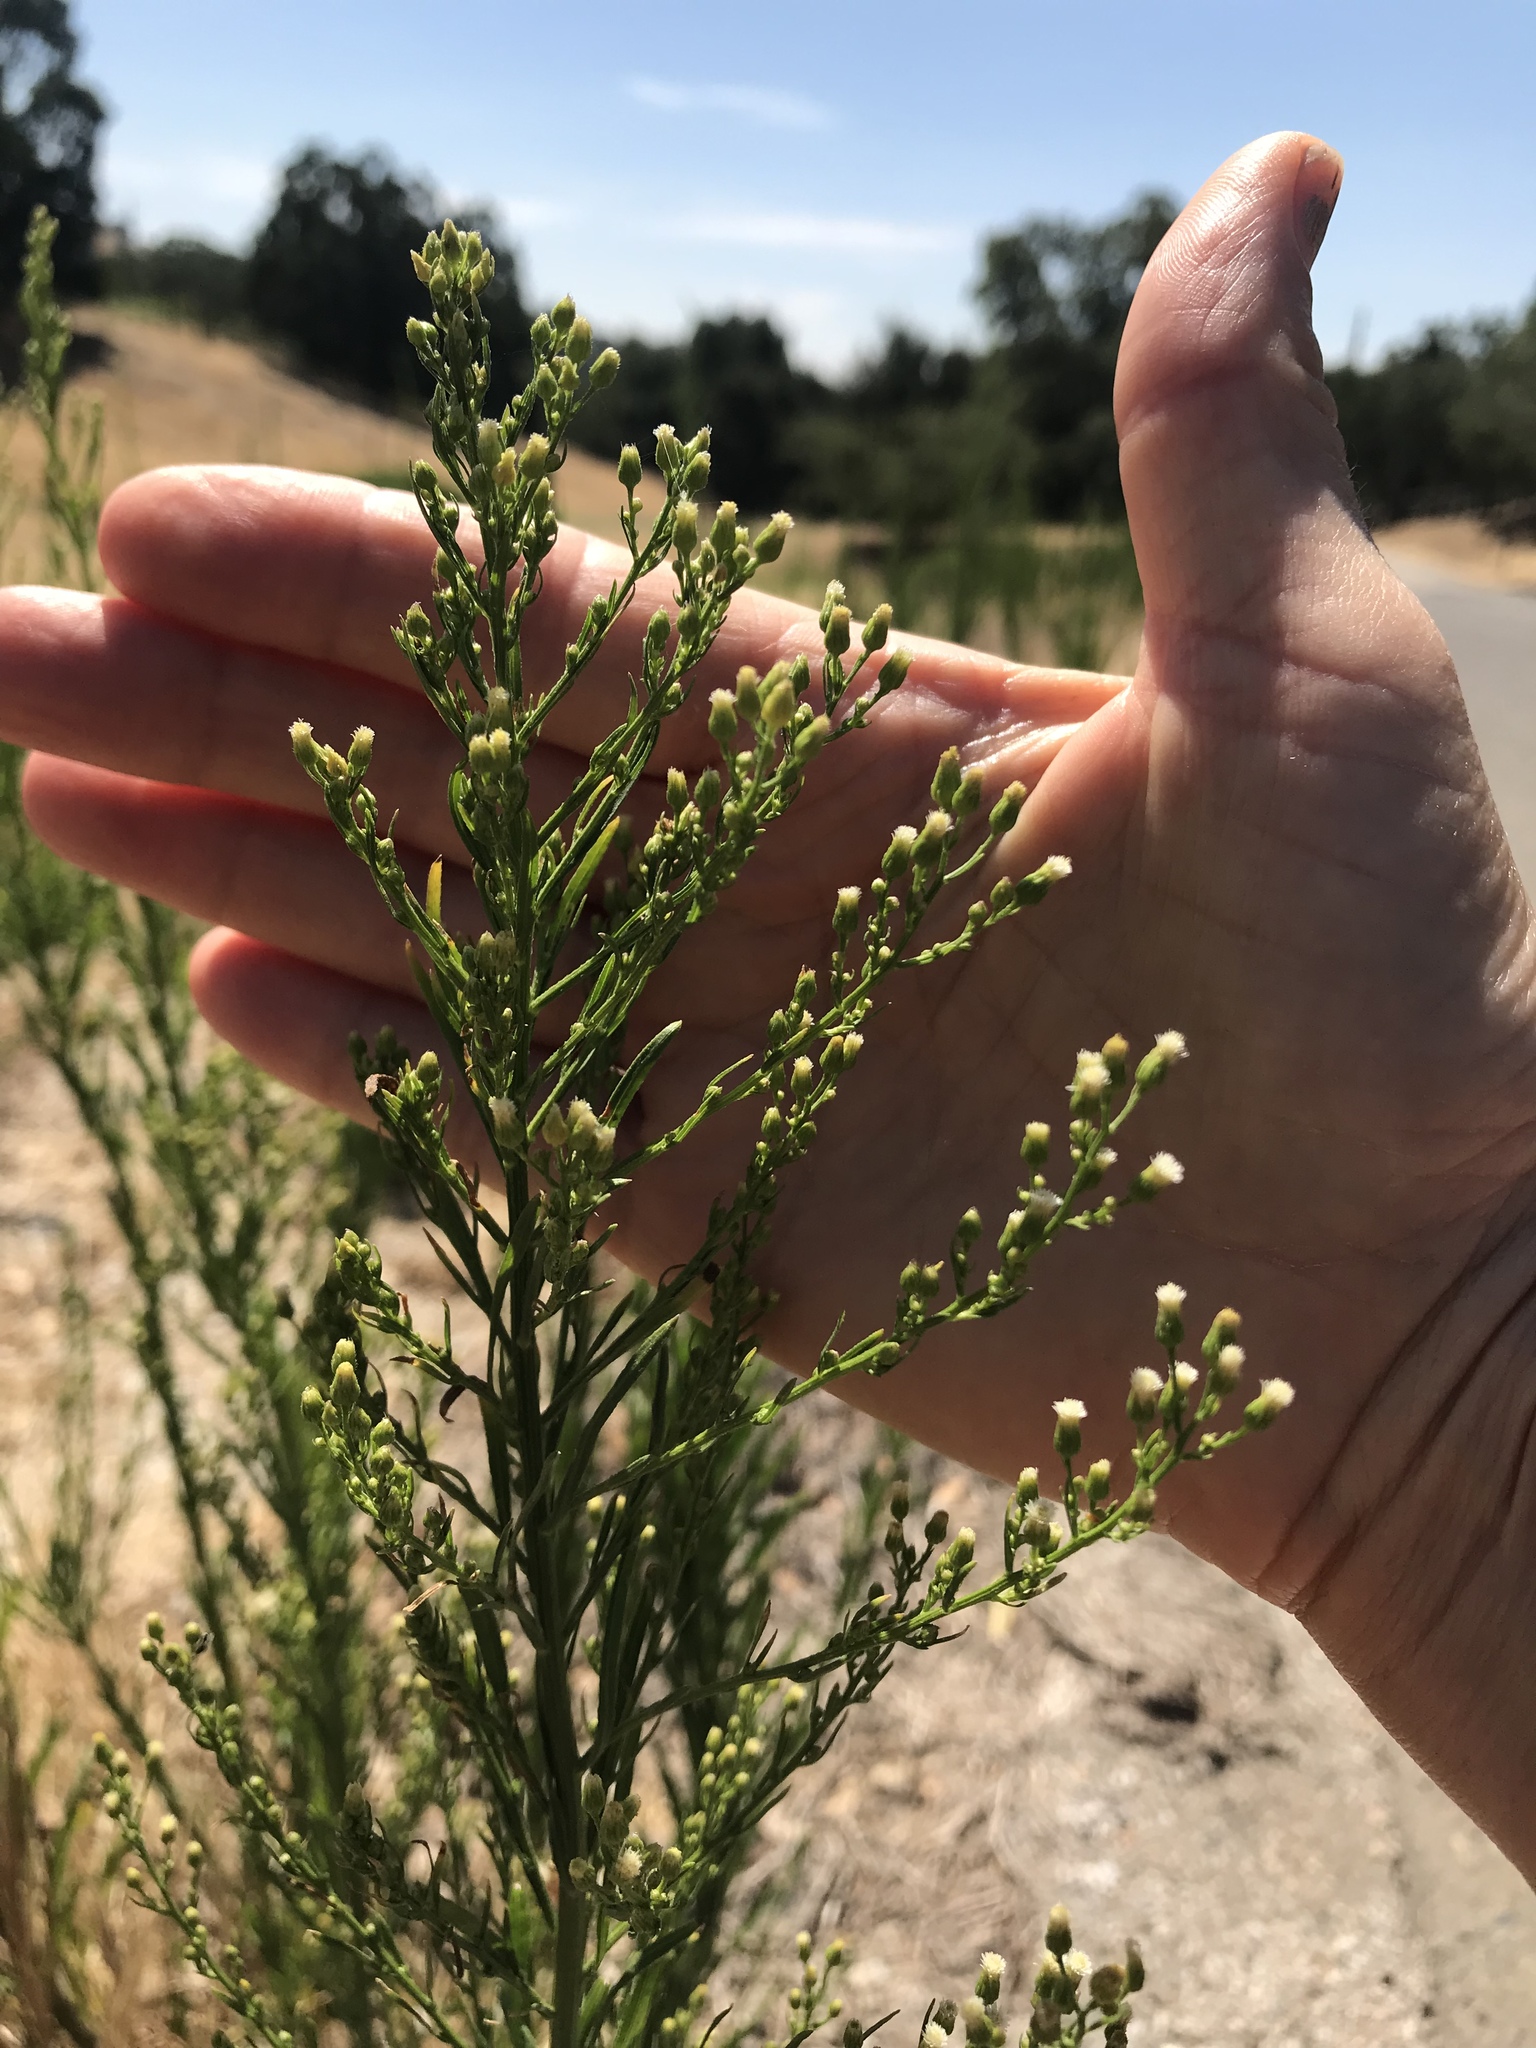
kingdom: Plantae
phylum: Tracheophyta
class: Magnoliopsida
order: Asterales
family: Asteraceae
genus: Erigeron
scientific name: Erigeron canadensis
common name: Canadian fleabane
